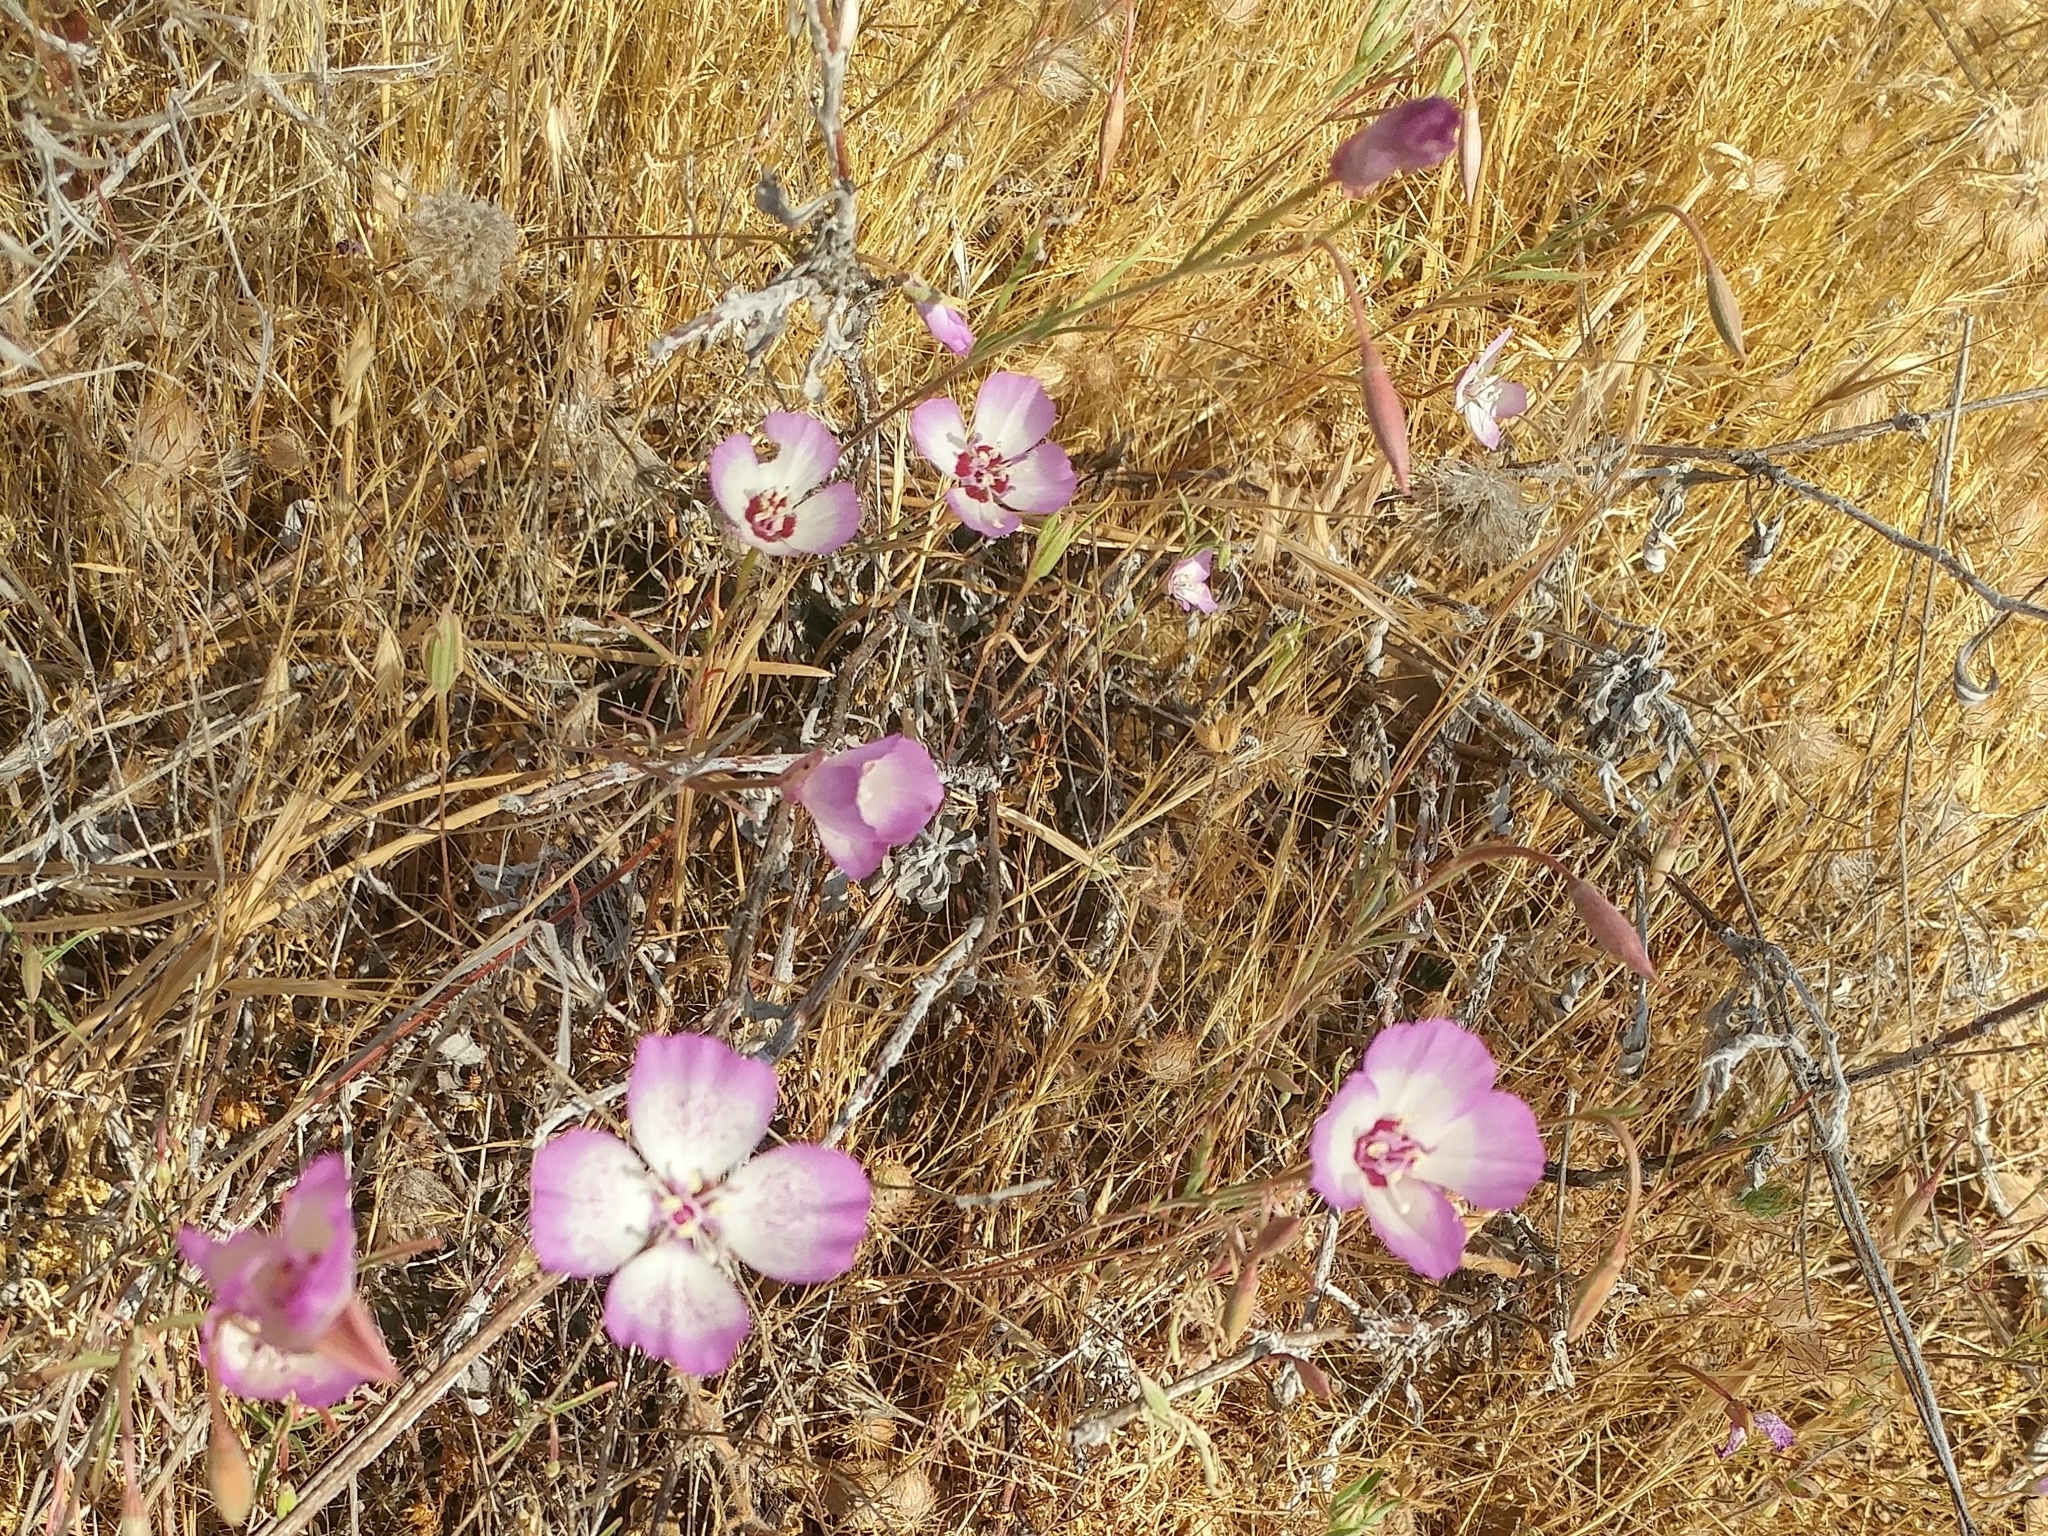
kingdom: Plantae
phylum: Tracheophyta
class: Magnoliopsida
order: Myrtales
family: Onagraceae
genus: Clarkia
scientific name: Clarkia cylindrica
